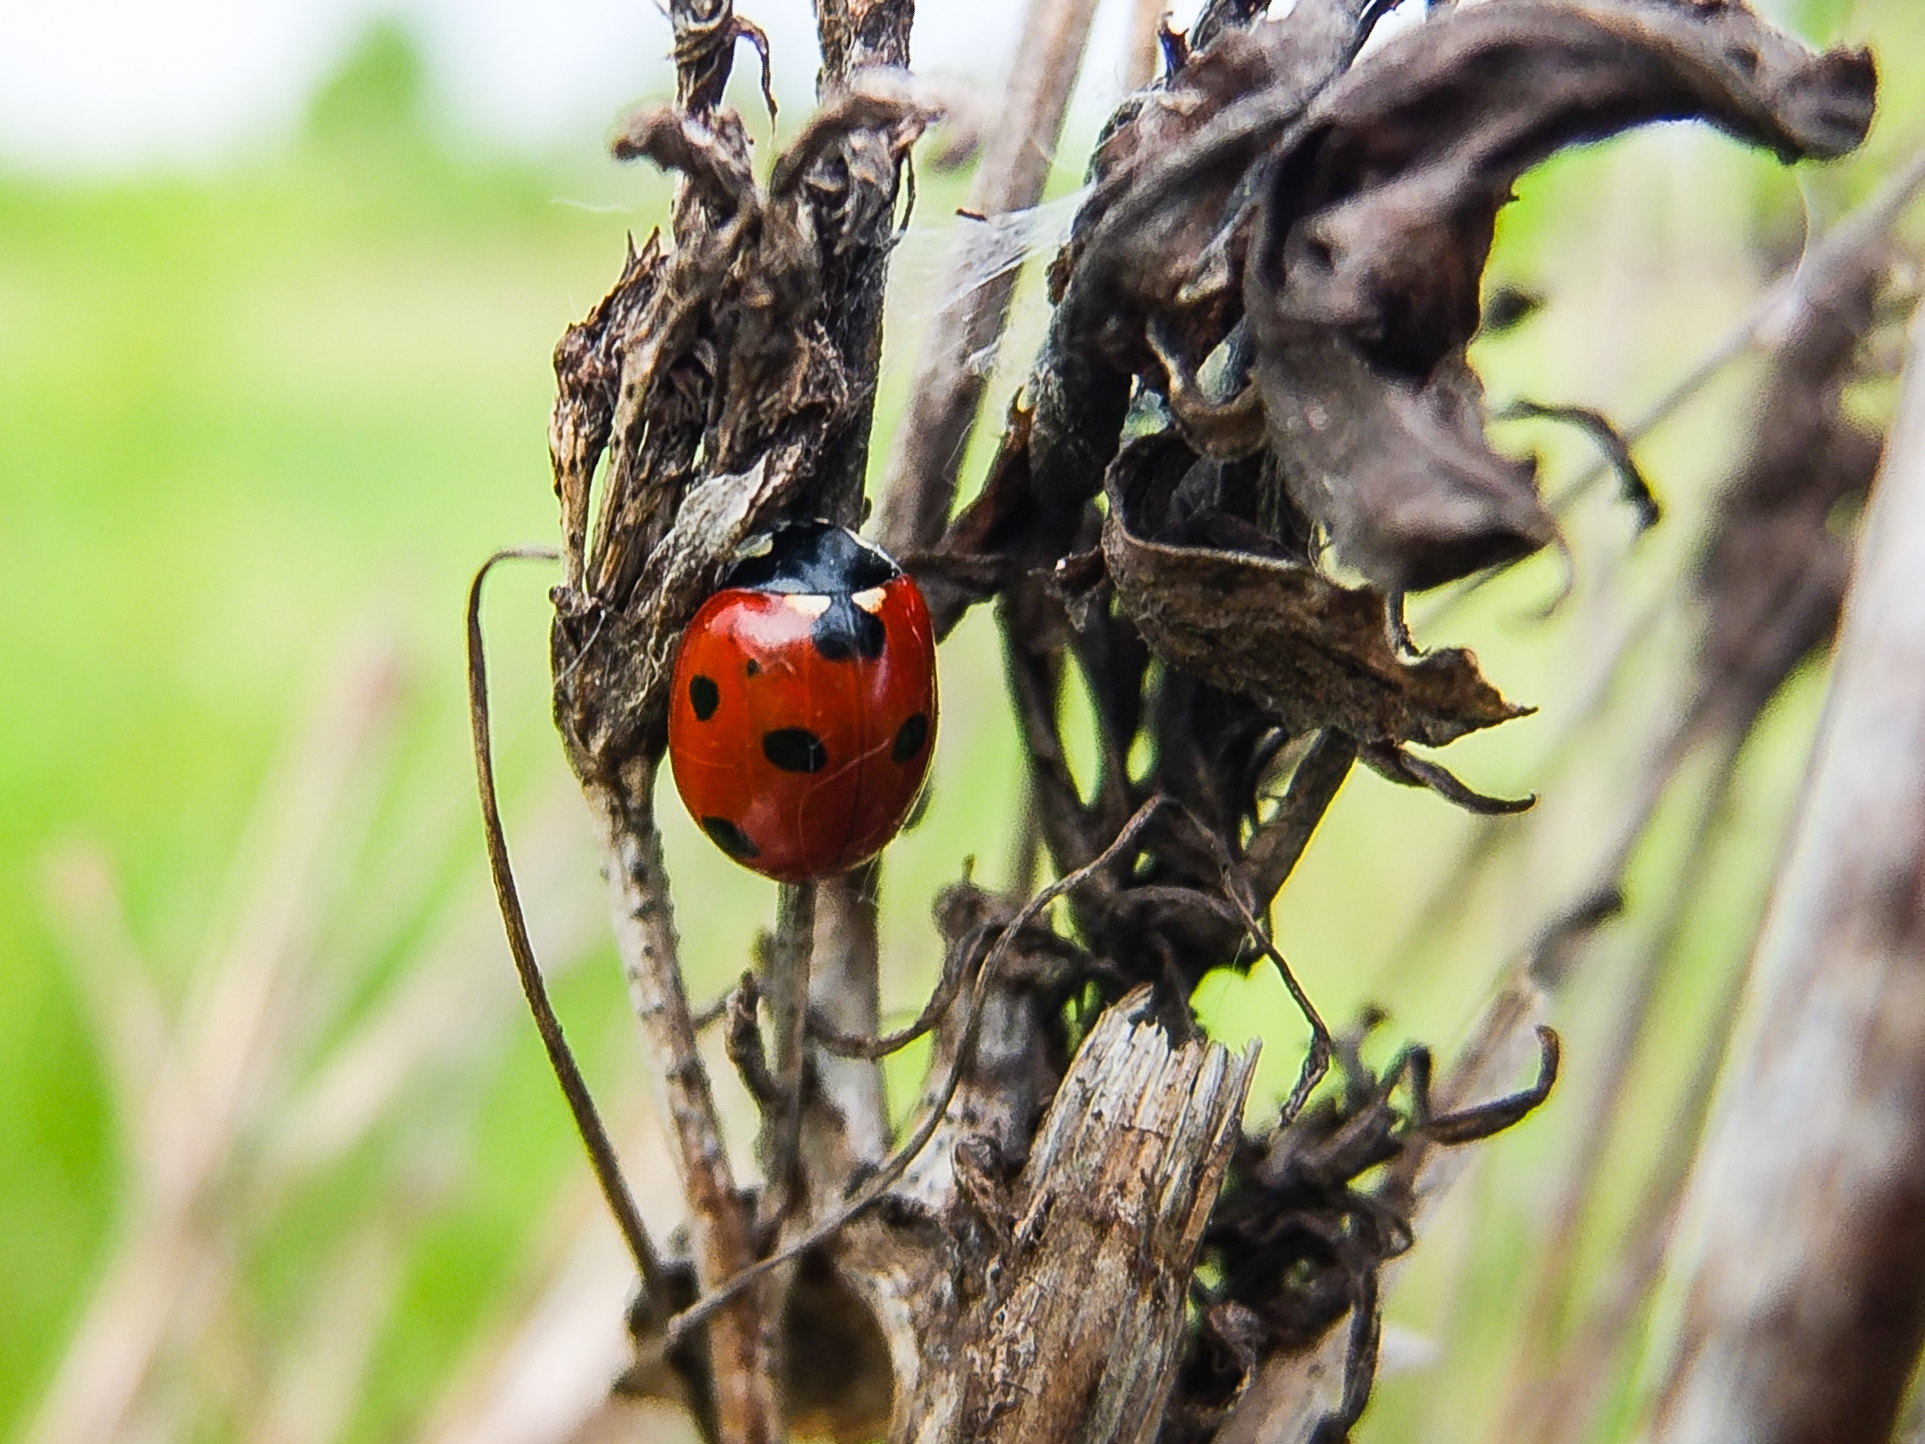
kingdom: Animalia
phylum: Arthropoda
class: Insecta
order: Coleoptera
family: Coccinellidae
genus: Coccinella
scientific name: Coccinella septempunctata
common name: Sevenspotted lady beetle
